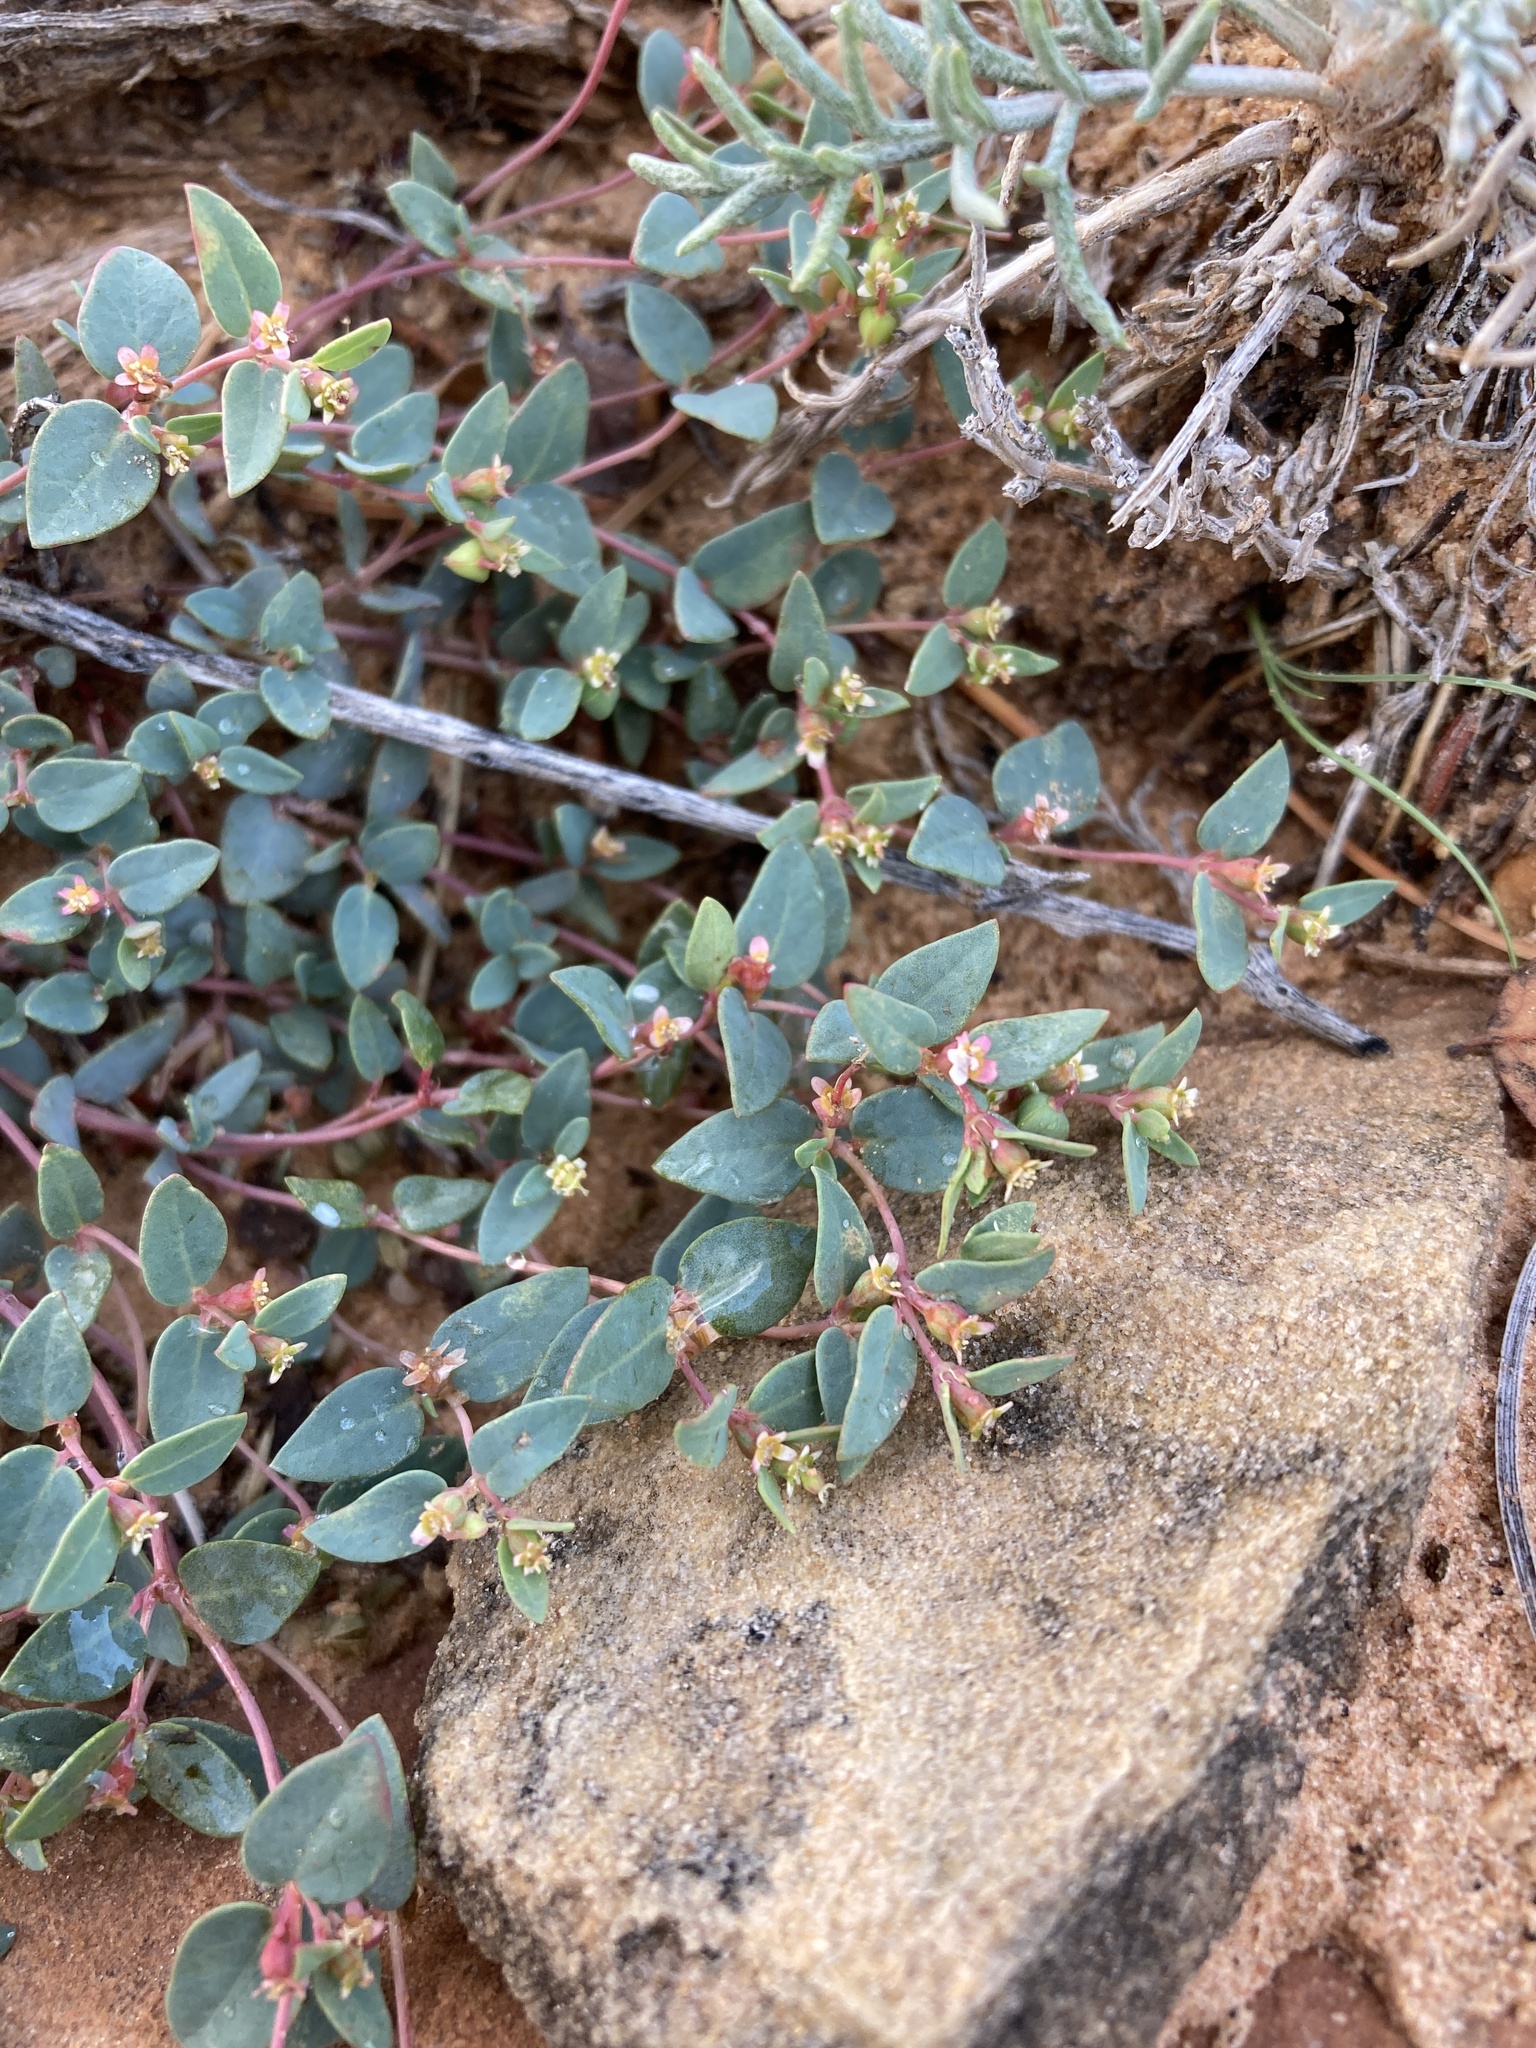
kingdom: Plantae
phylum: Tracheophyta
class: Magnoliopsida
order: Malpighiales
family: Euphorbiaceae
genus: Euphorbia
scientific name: Euphorbia fendleri
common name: Fendler's euphorbia
